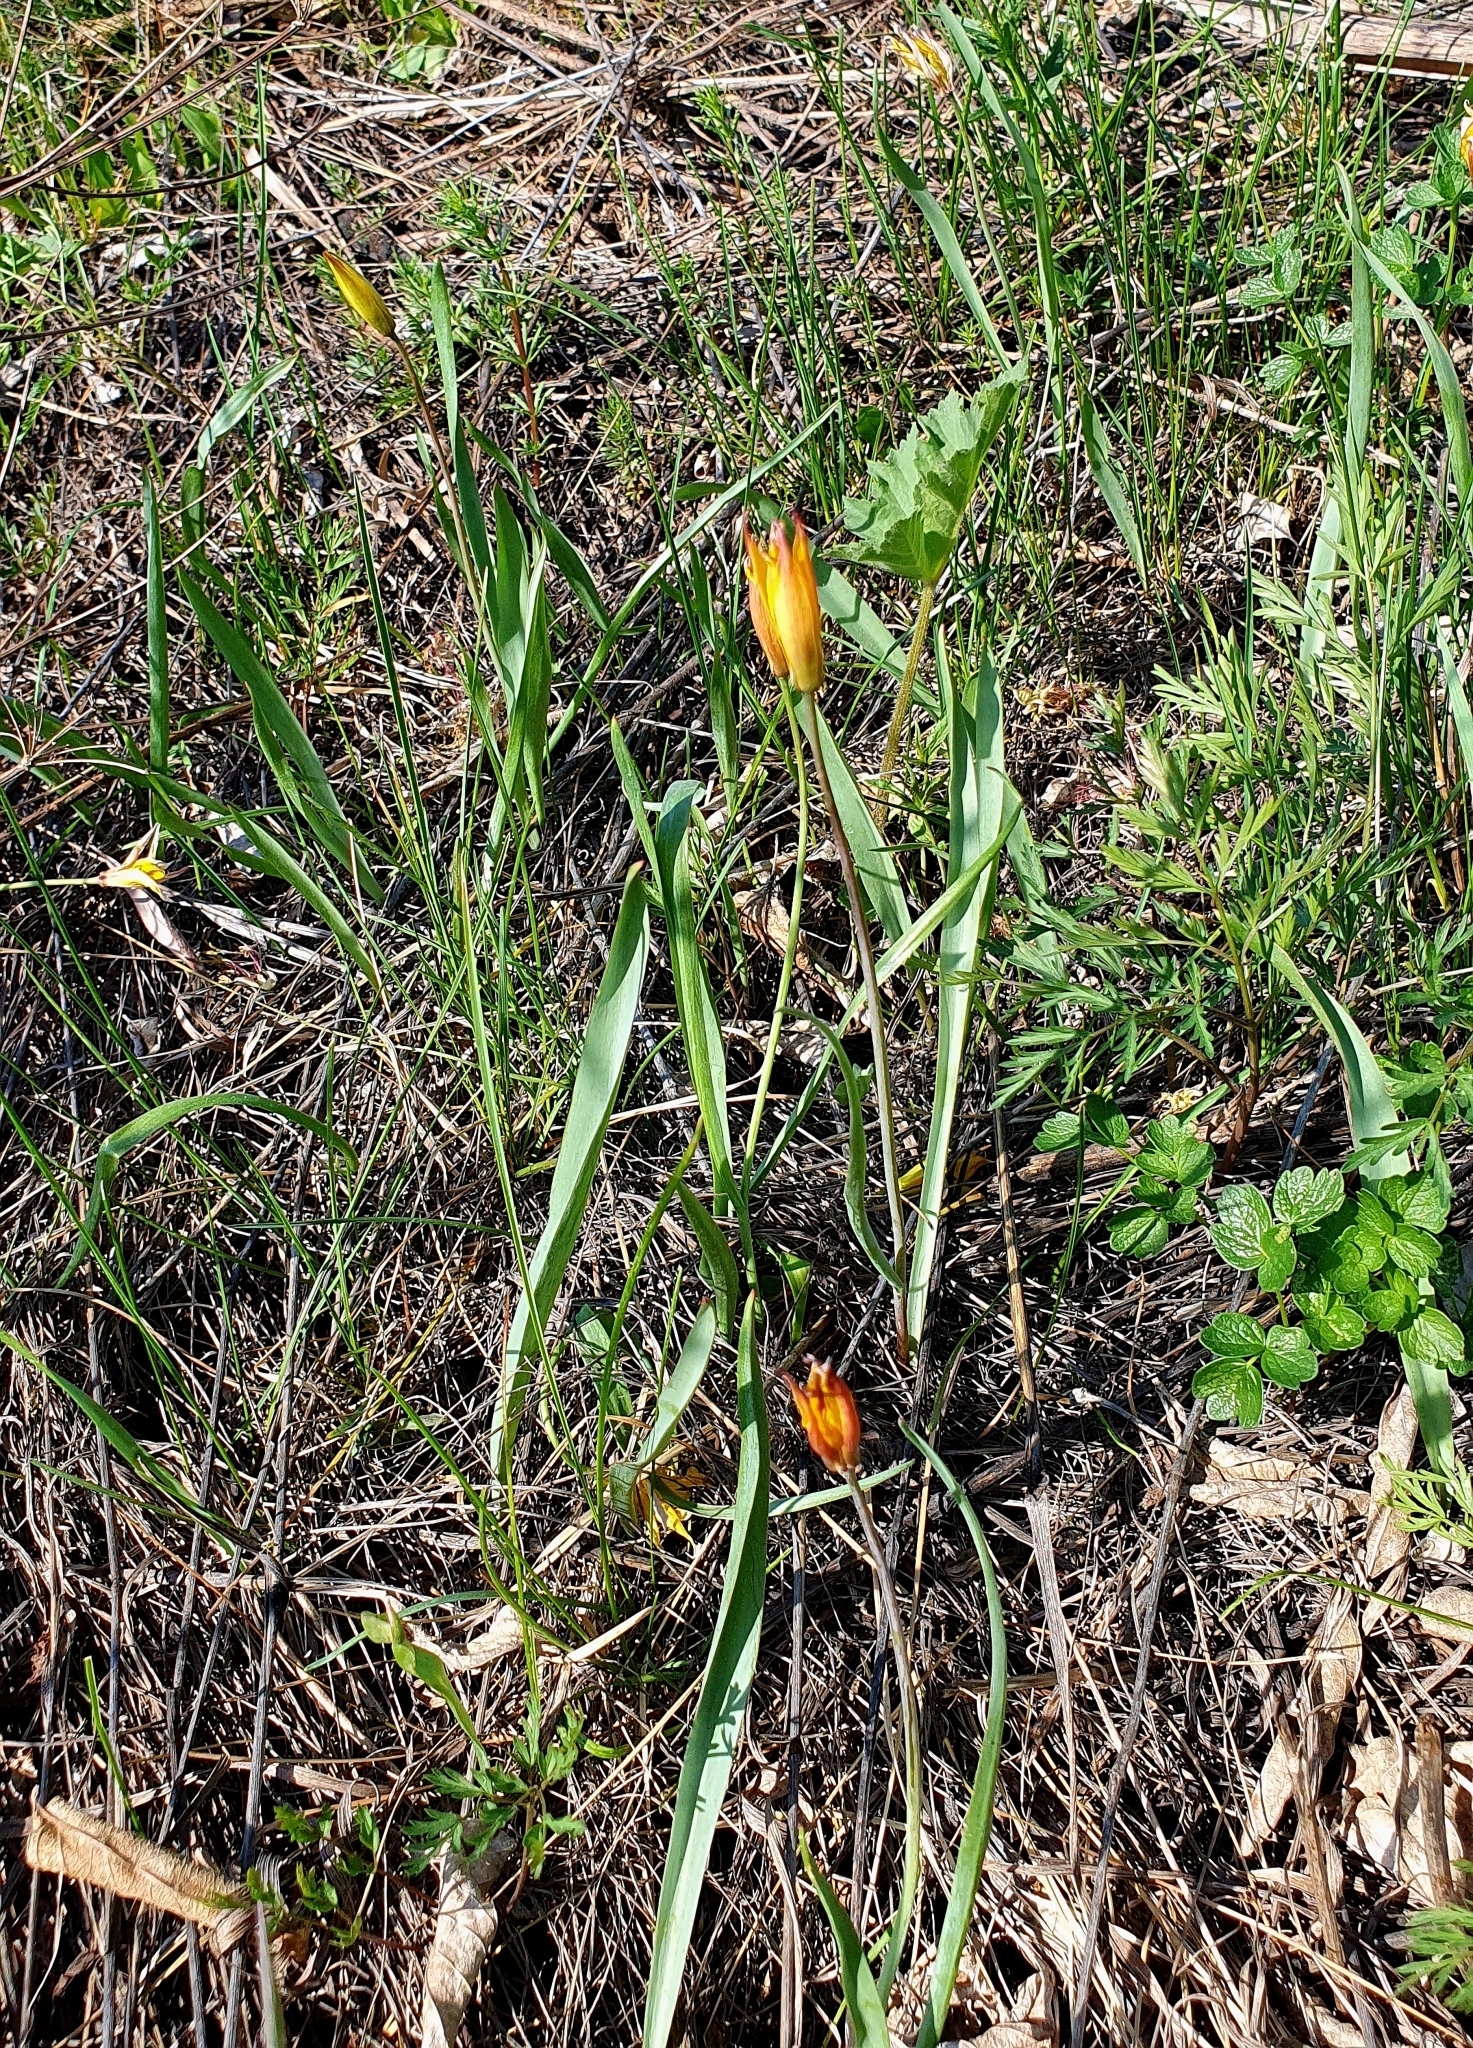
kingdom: Plantae
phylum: Tracheophyta
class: Liliopsida
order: Liliales
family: Liliaceae
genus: Tulipa
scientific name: Tulipa sylvestris
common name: Wild tulip
